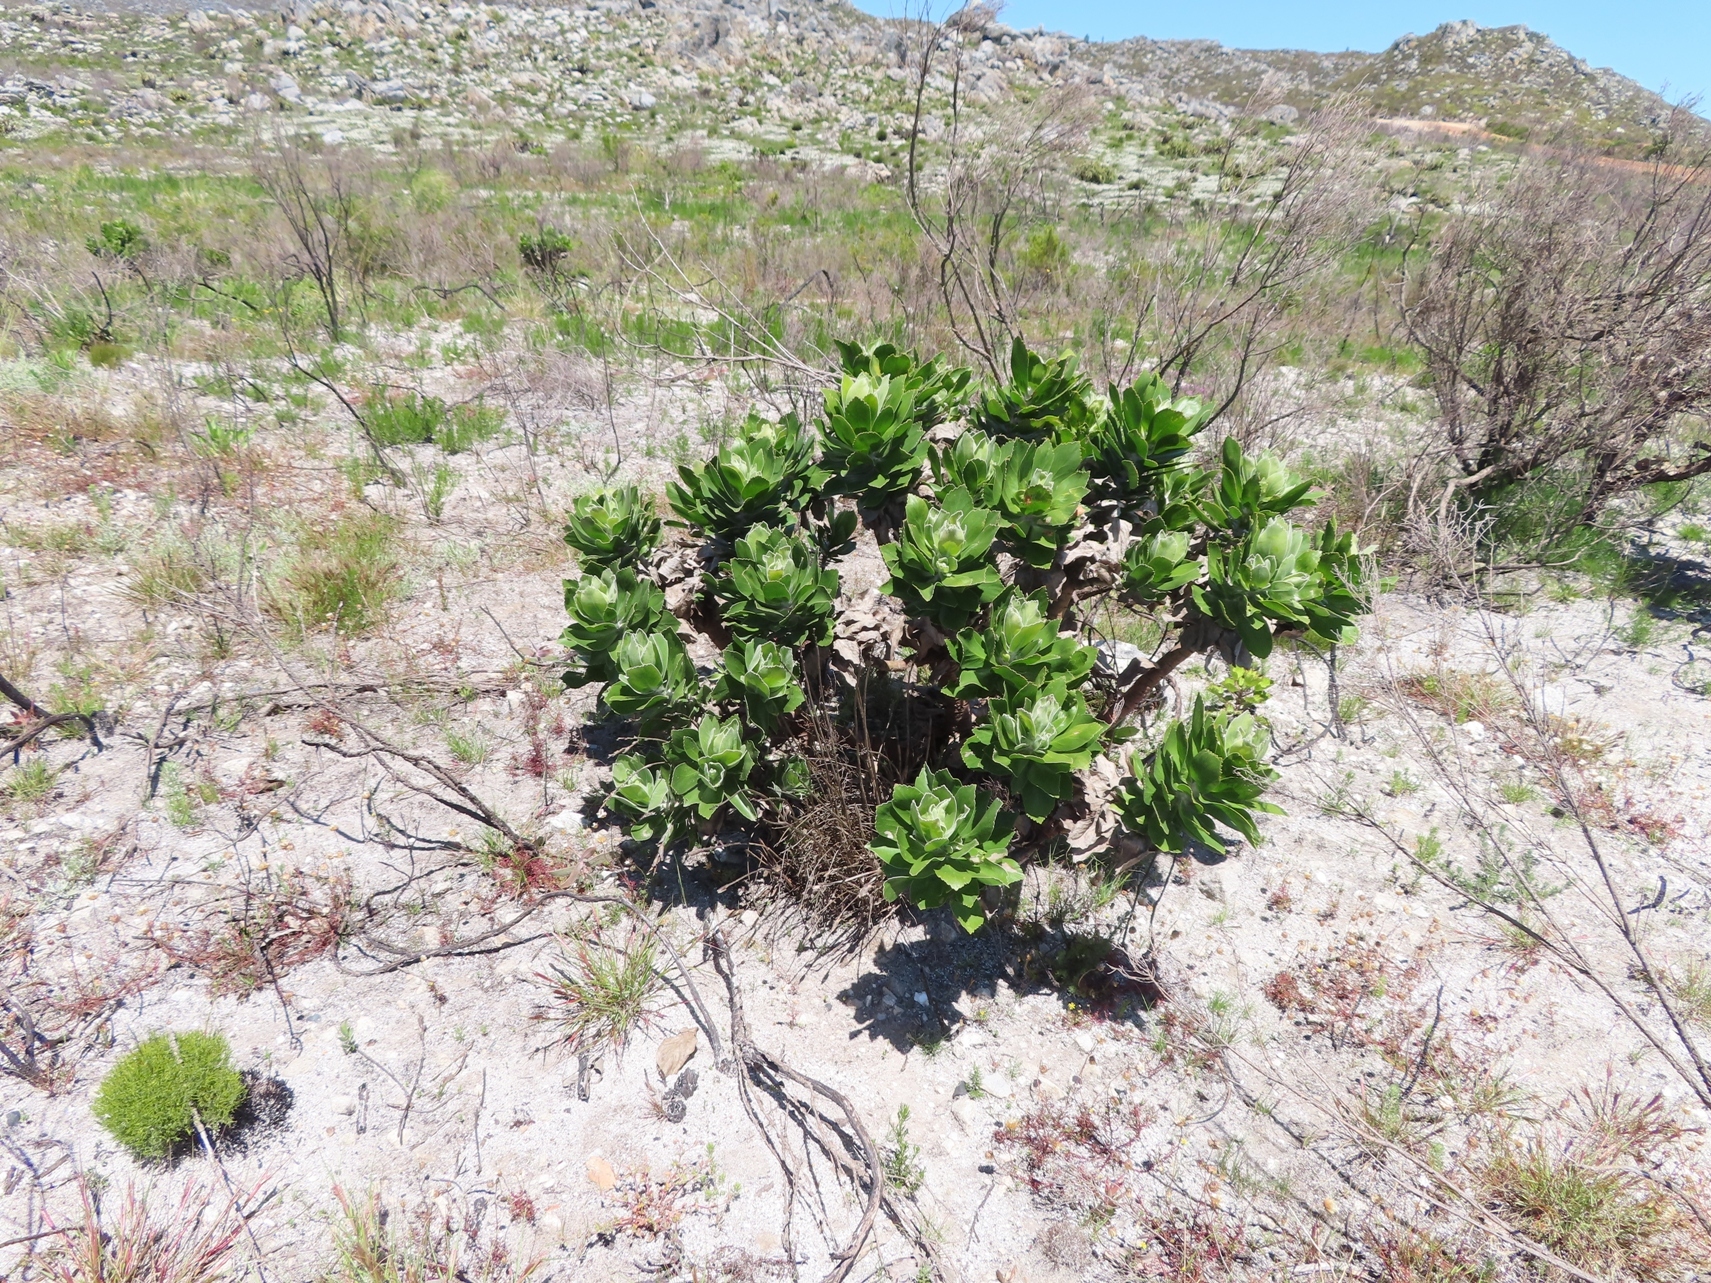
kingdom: Plantae
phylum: Tracheophyta
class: Magnoliopsida
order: Proteales
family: Proteaceae
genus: Leucospermum
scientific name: Leucospermum conocarpodendron
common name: Tree pincushion
